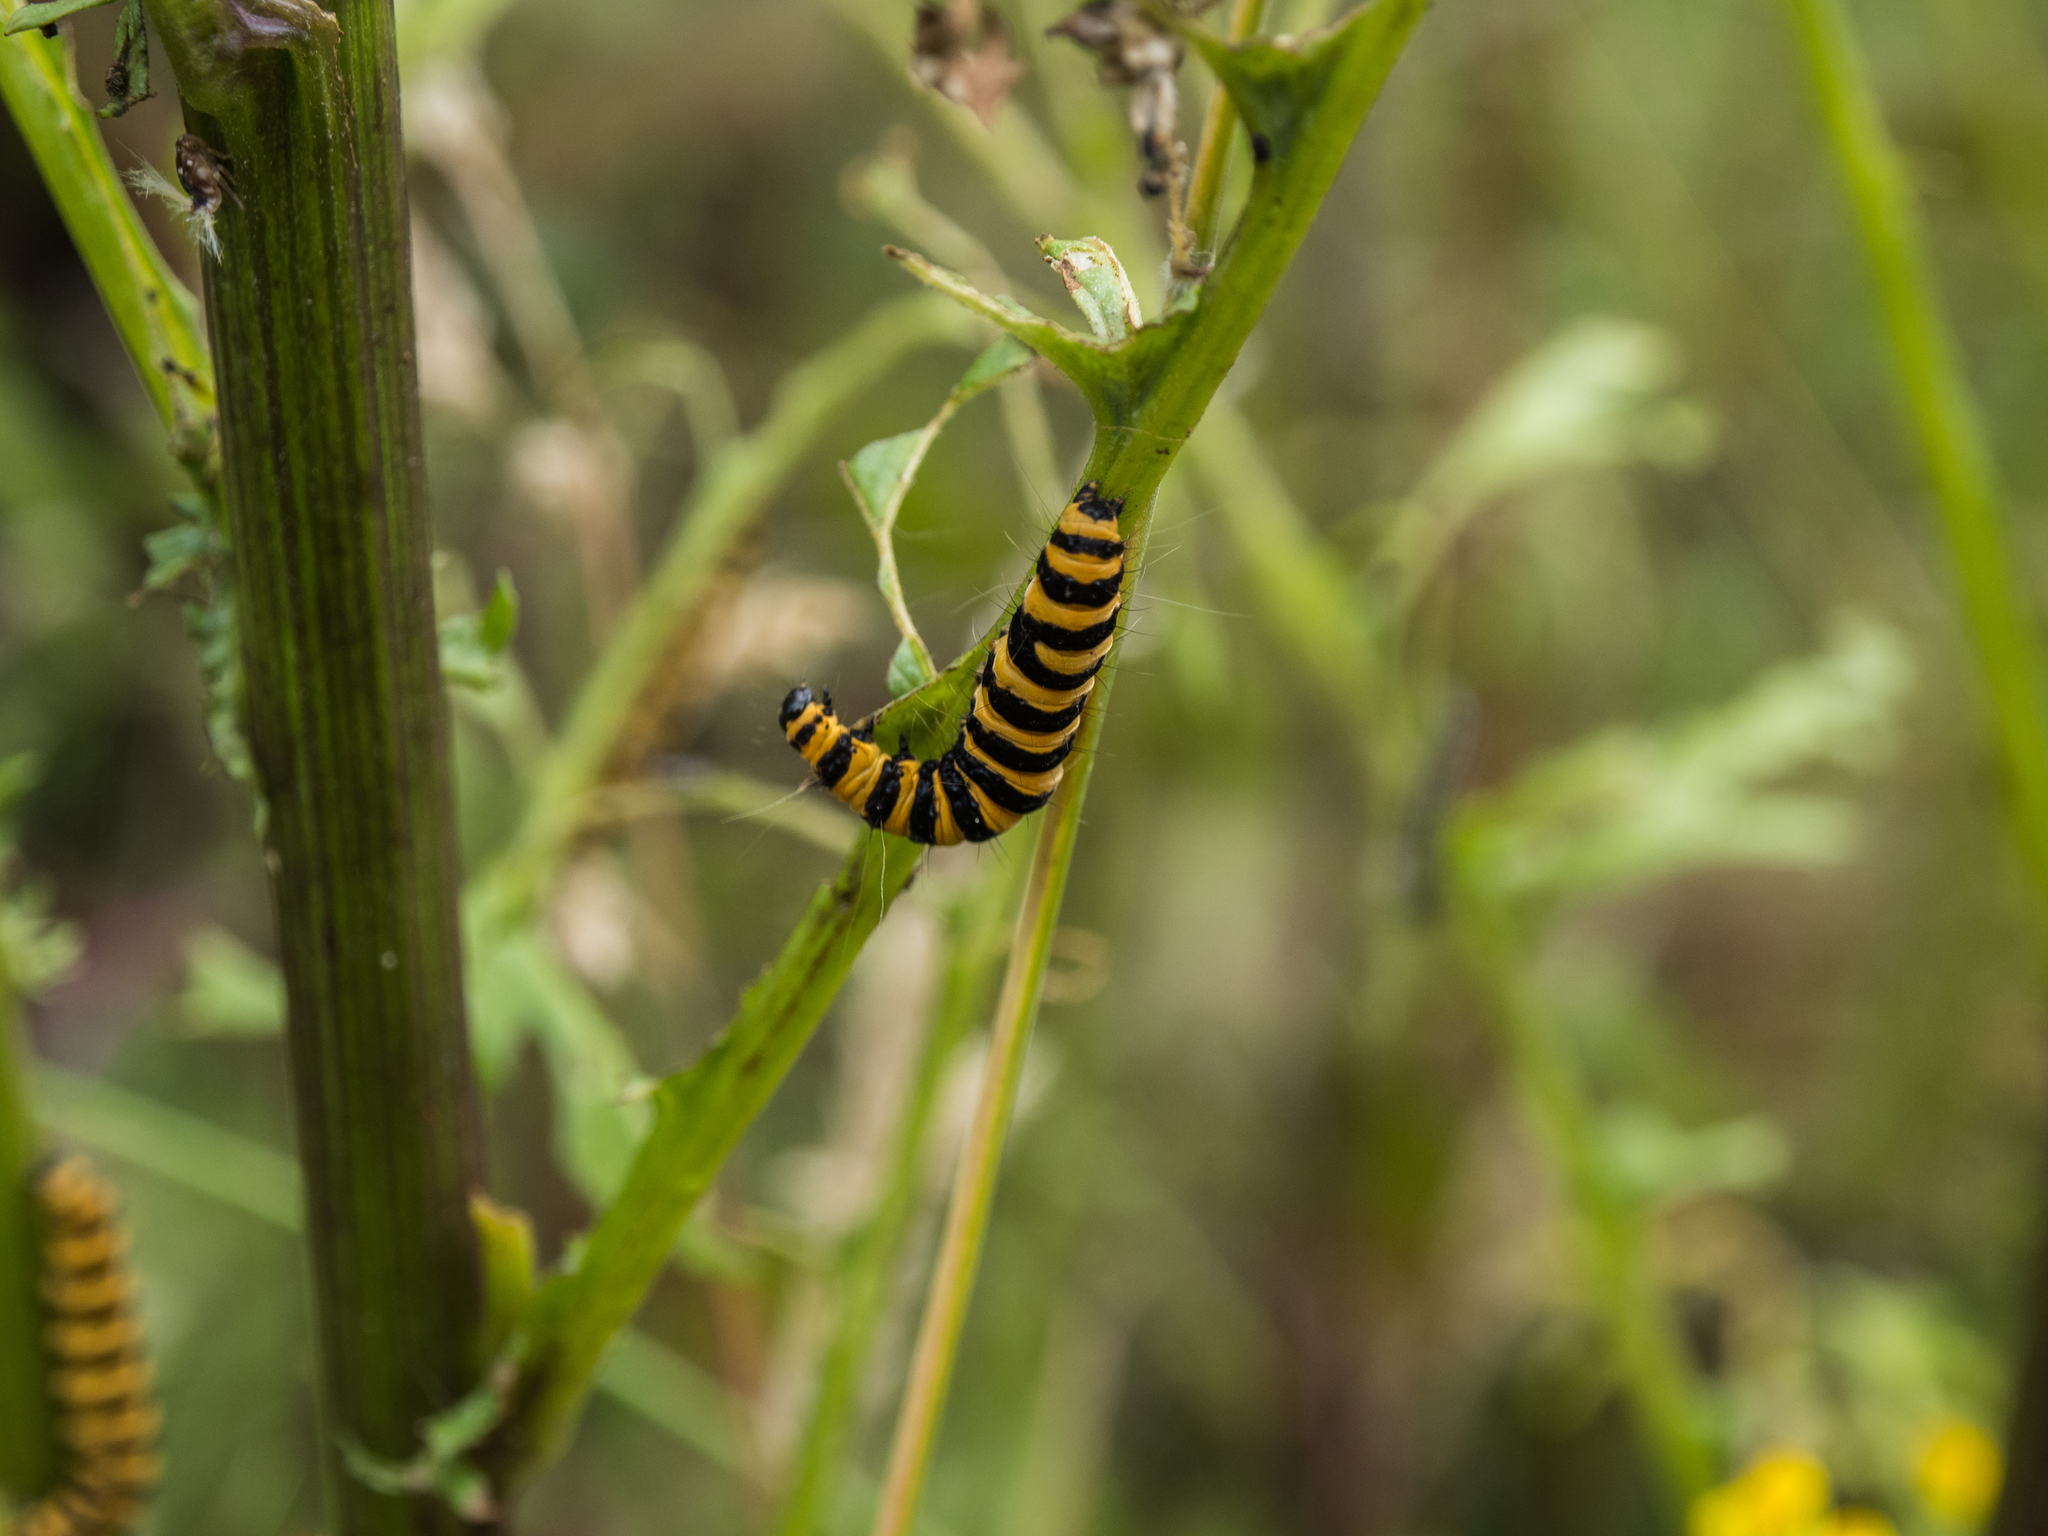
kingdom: Animalia
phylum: Arthropoda
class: Insecta
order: Lepidoptera
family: Erebidae
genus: Tyria
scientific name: Tyria jacobaeae
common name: Cinnabar
